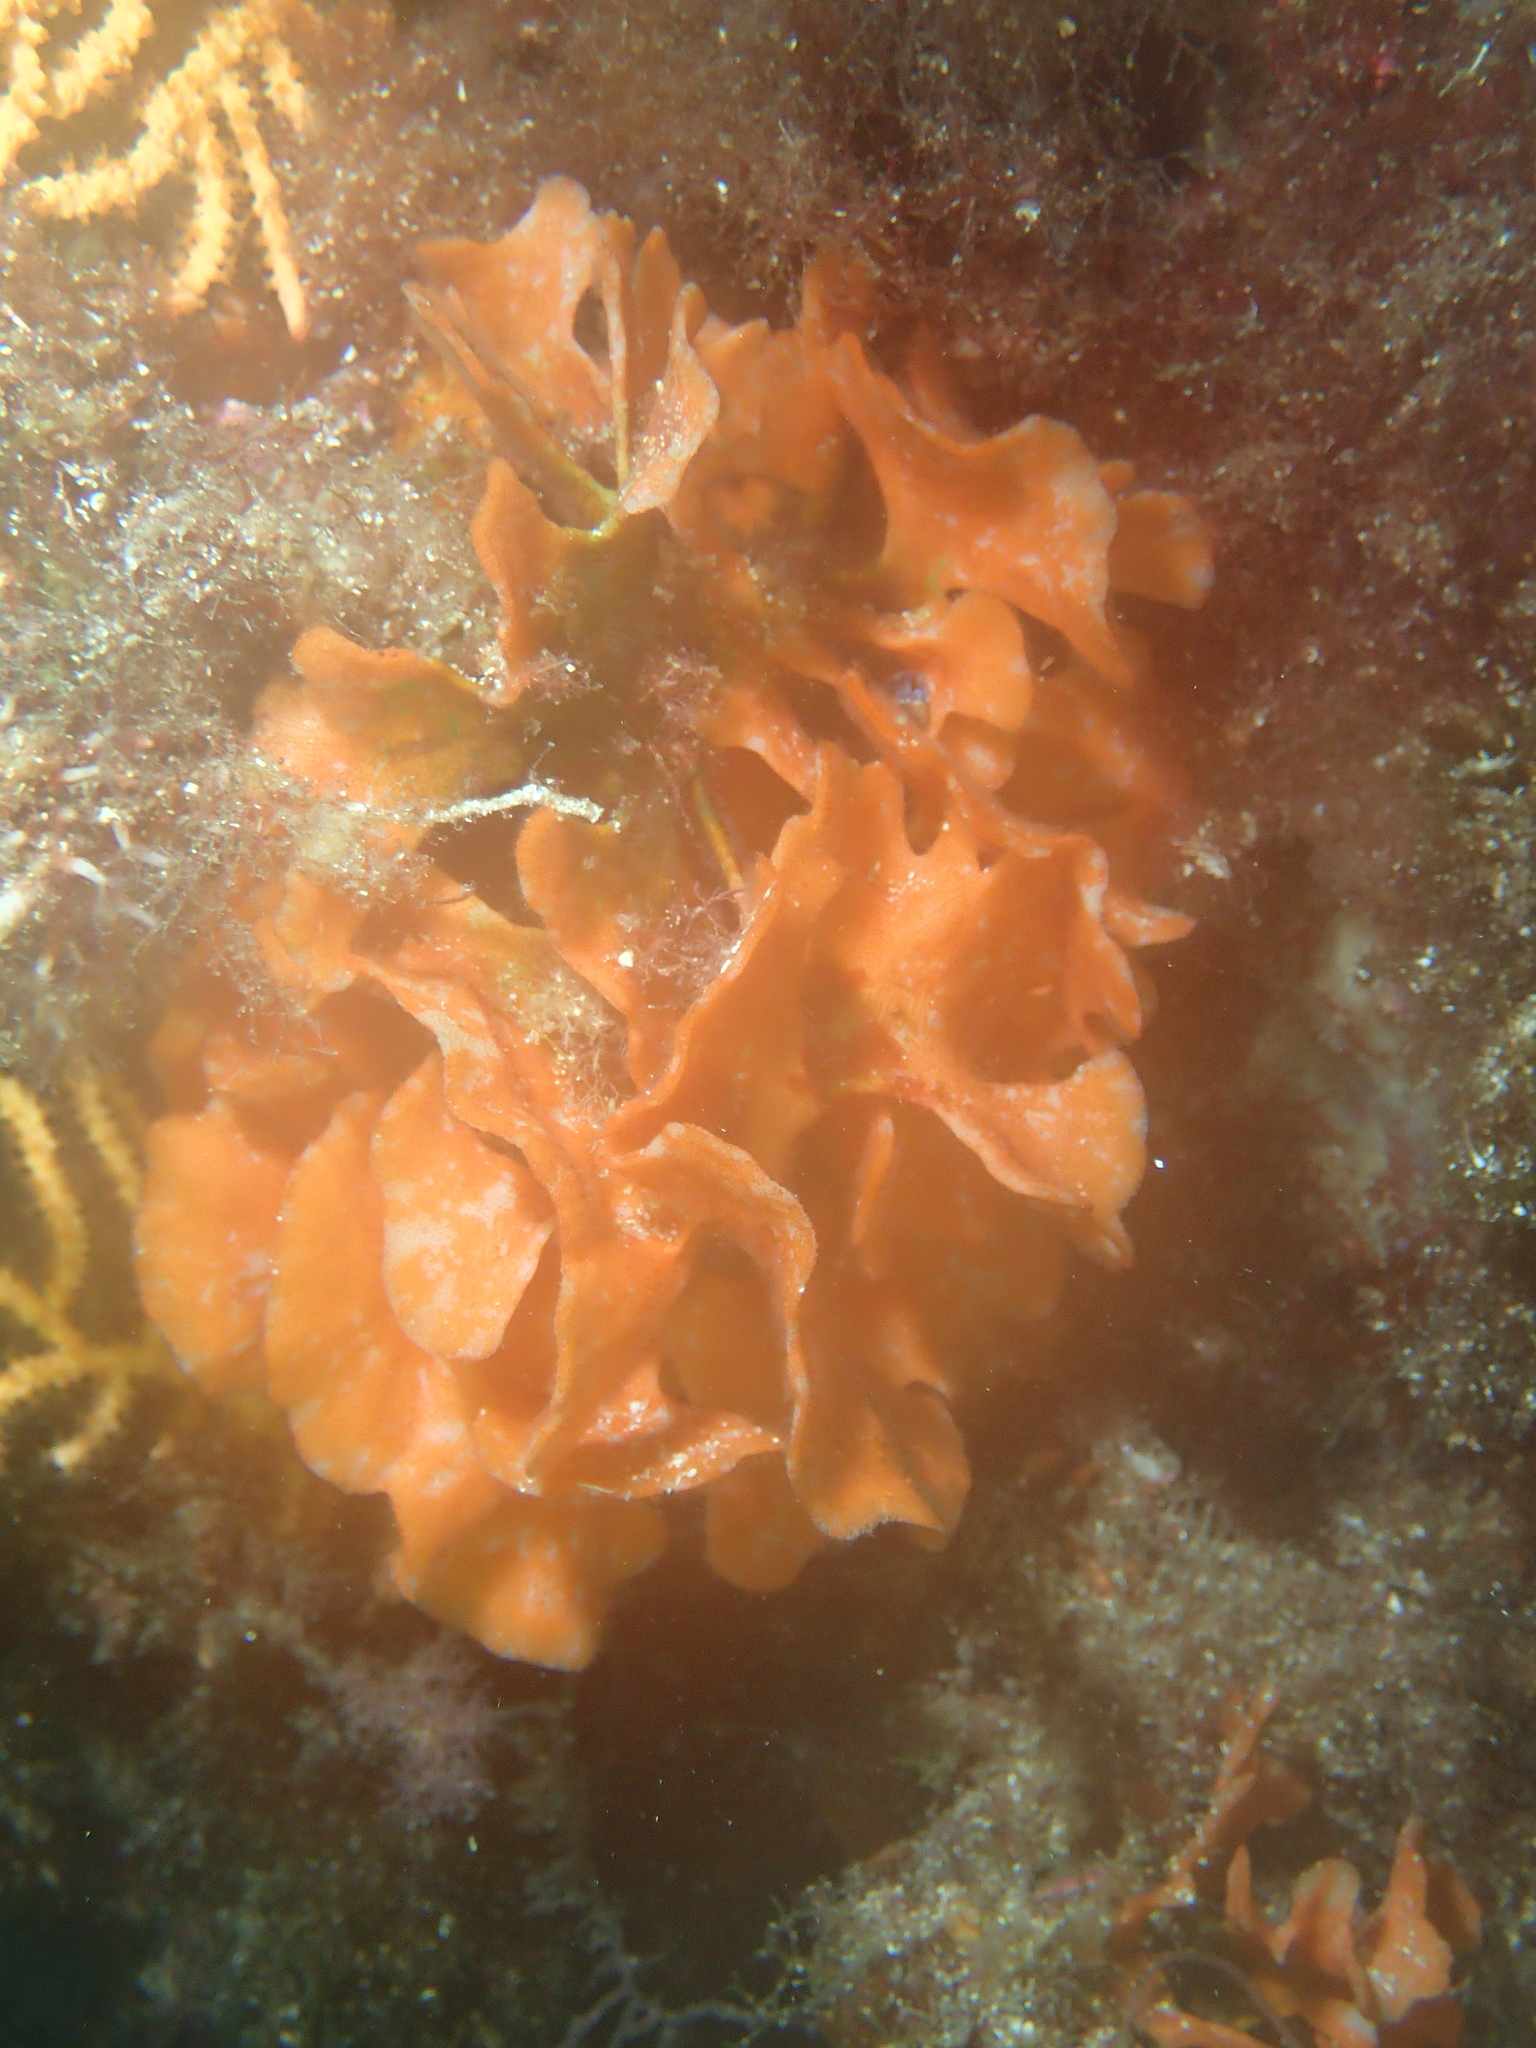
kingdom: Animalia
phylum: Bryozoa
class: Gymnolaemata
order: Cheilostomatida
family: Bitectiporidae
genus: Pentapora
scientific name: Pentapora fascialis
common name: Ross coral
